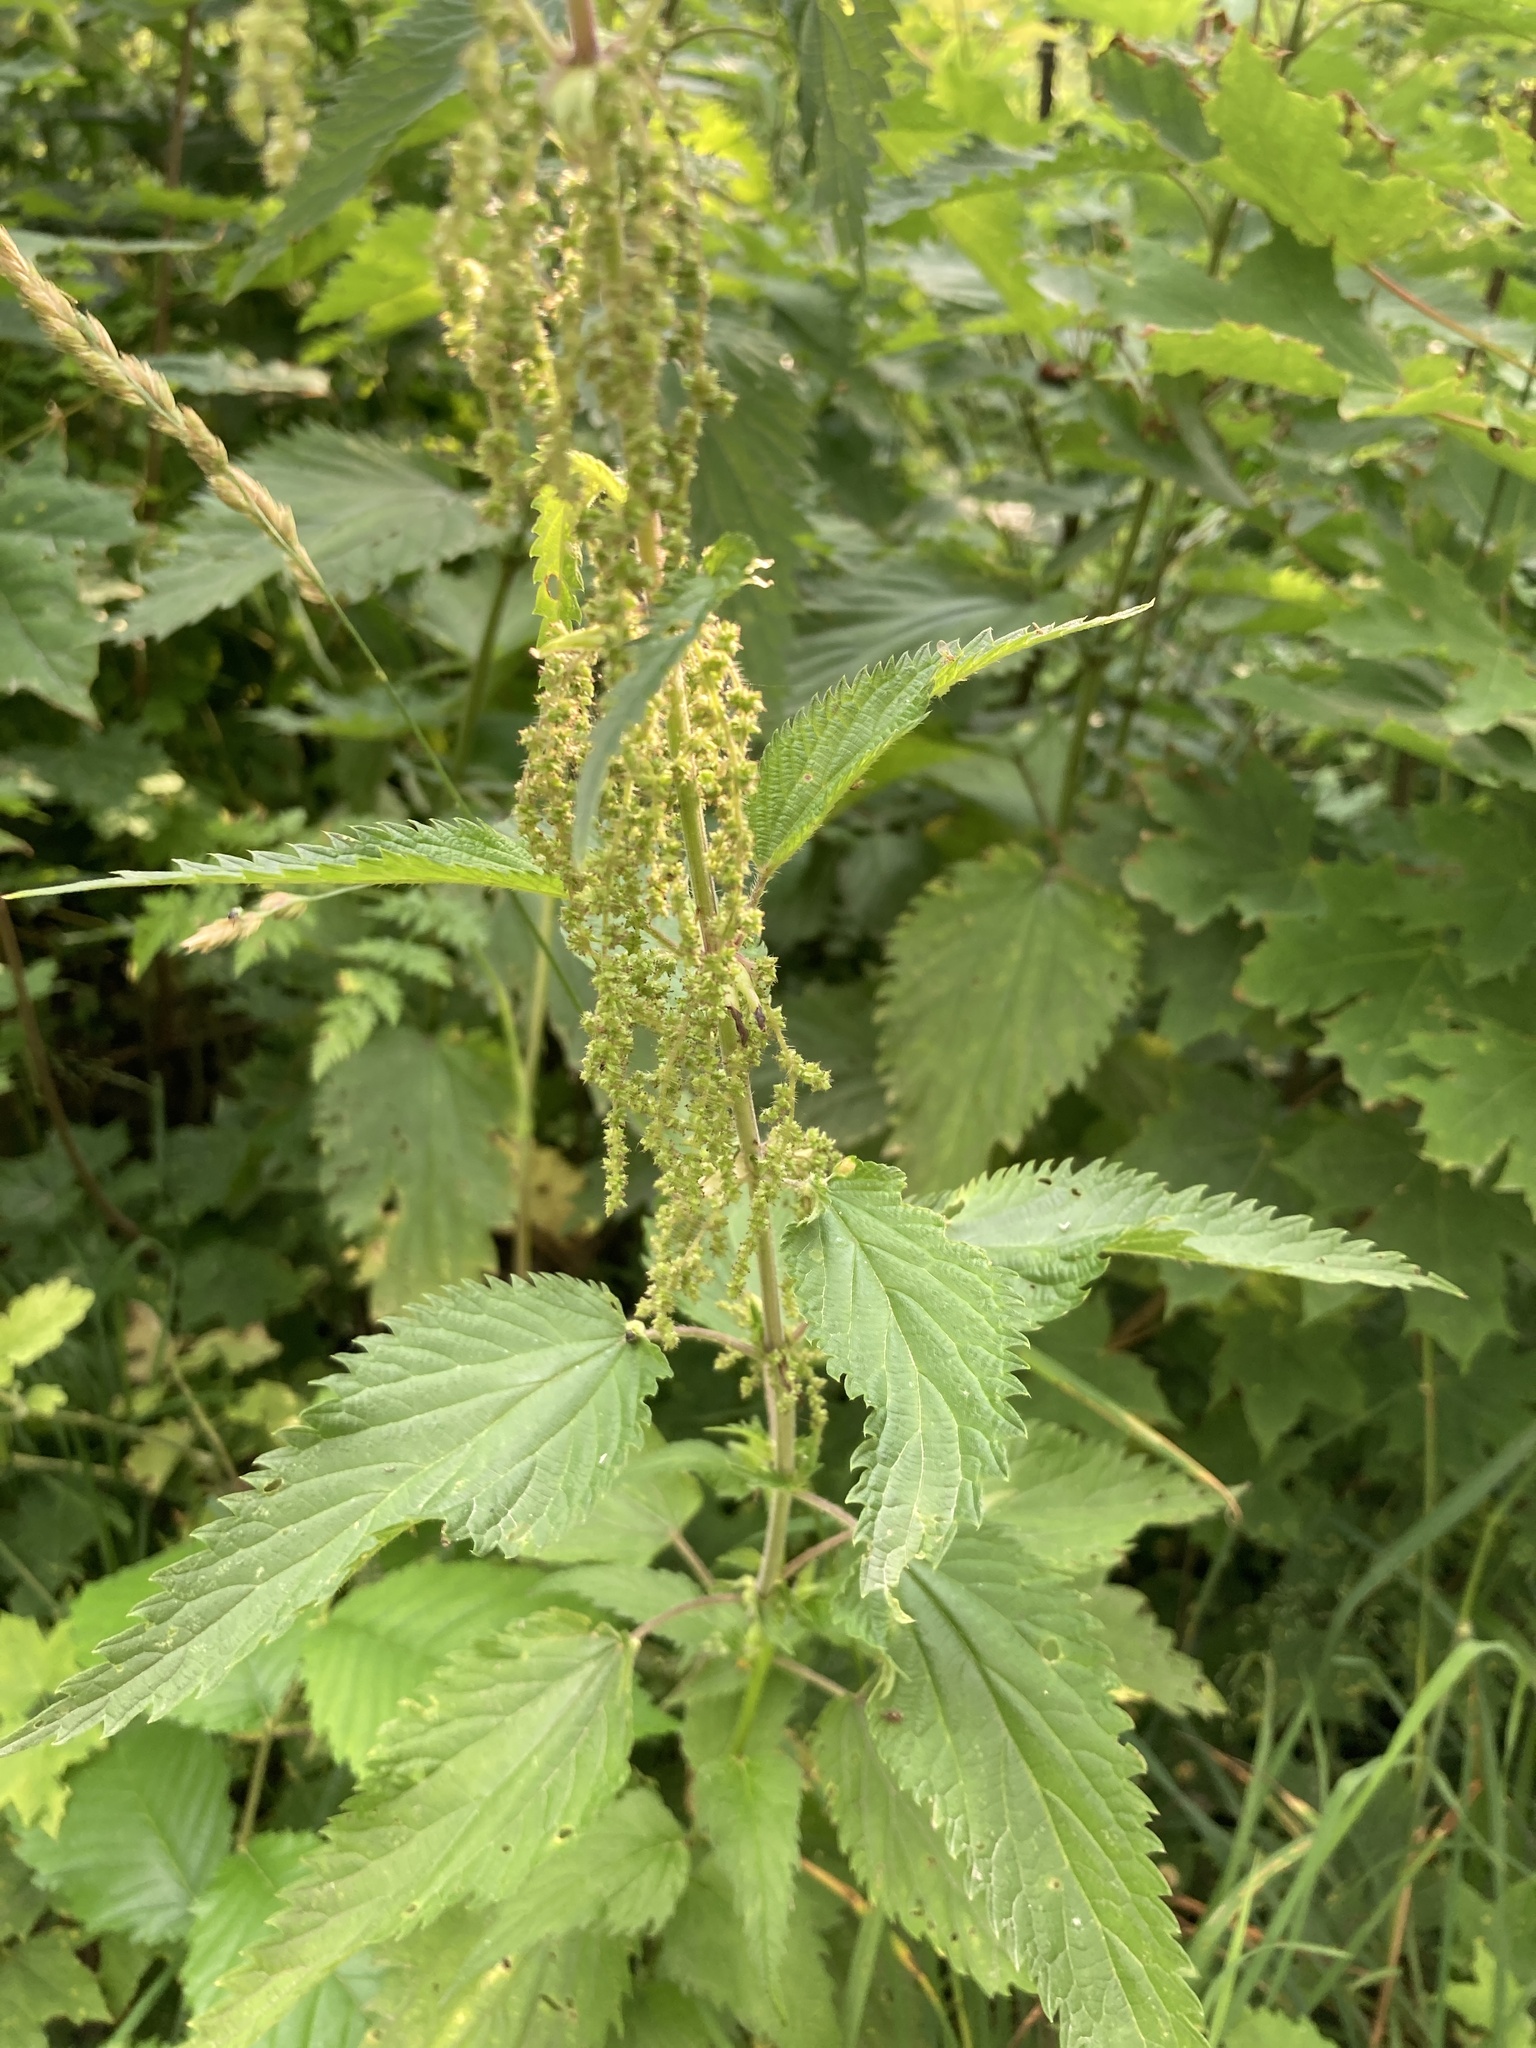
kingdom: Plantae
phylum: Tracheophyta
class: Magnoliopsida
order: Rosales
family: Urticaceae
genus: Urtica
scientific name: Urtica dioica
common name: Common nettle
